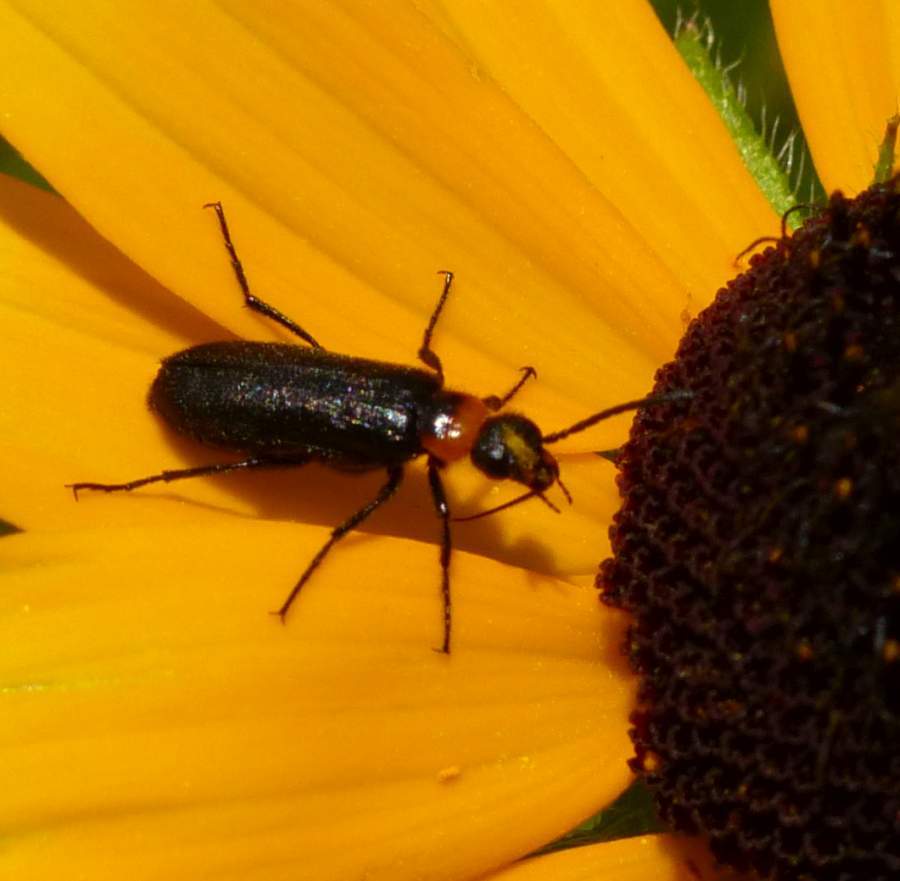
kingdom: Animalia
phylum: Arthropoda
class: Insecta
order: Coleoptera
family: Meloidae
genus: Nemognatha
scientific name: Nemognatha nemorensis
